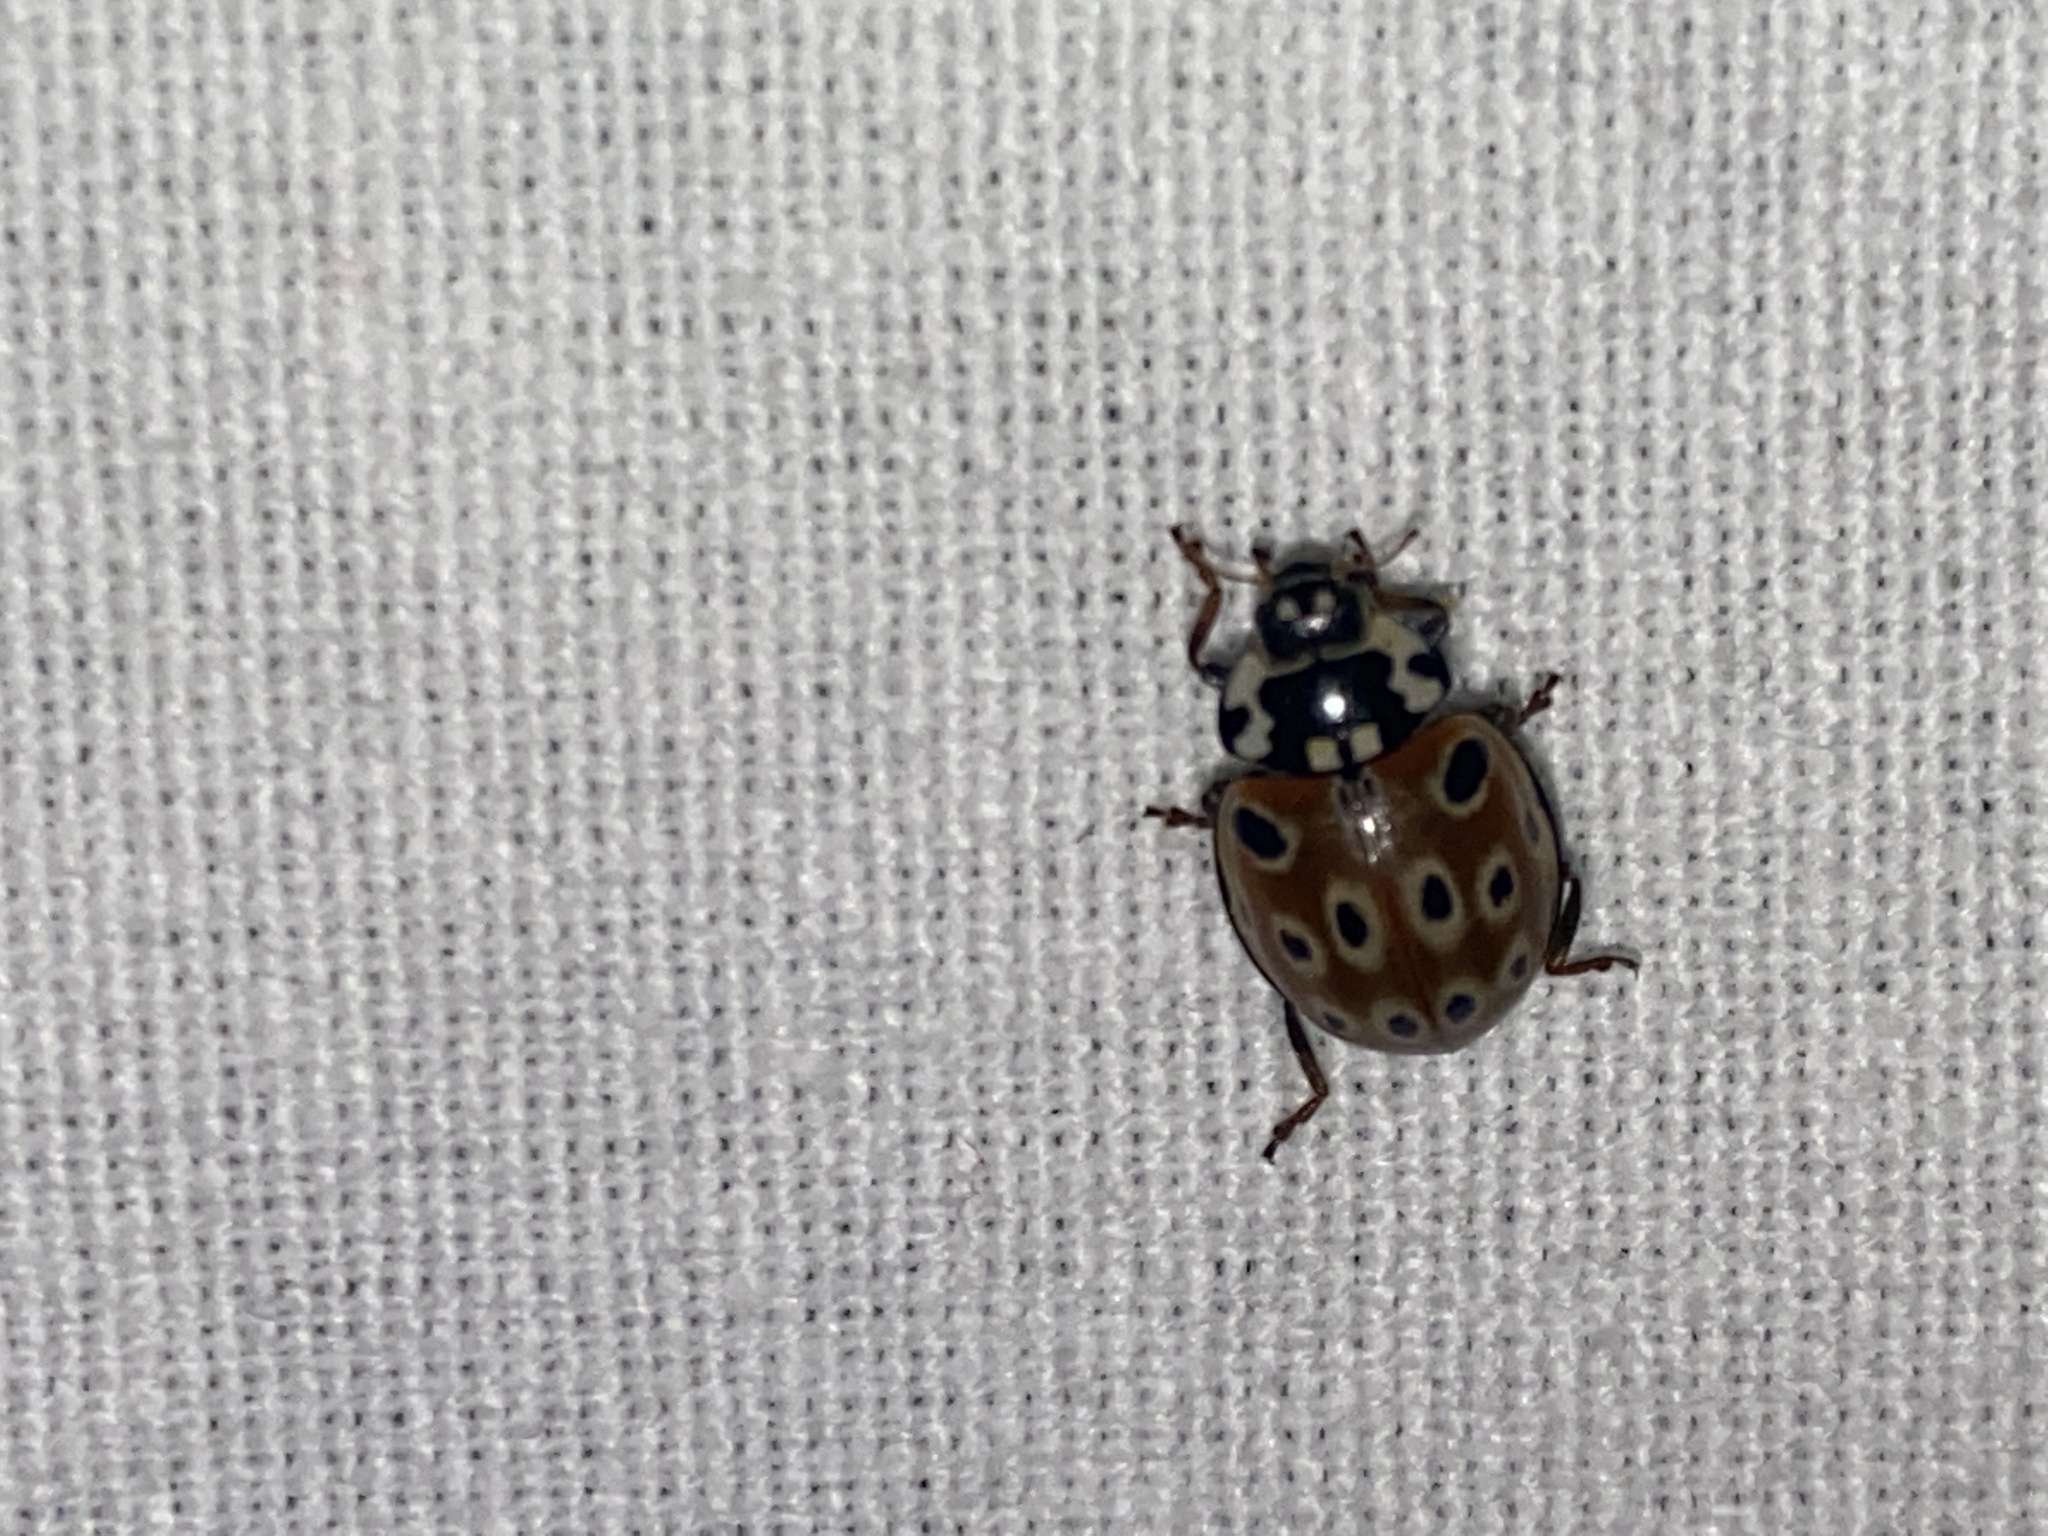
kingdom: Animalia
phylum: Arthropoda
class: Insecta
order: Coleoptera
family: Coccinellidae
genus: Anatis
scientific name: Anatis ocellata
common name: Eyed ladybird
